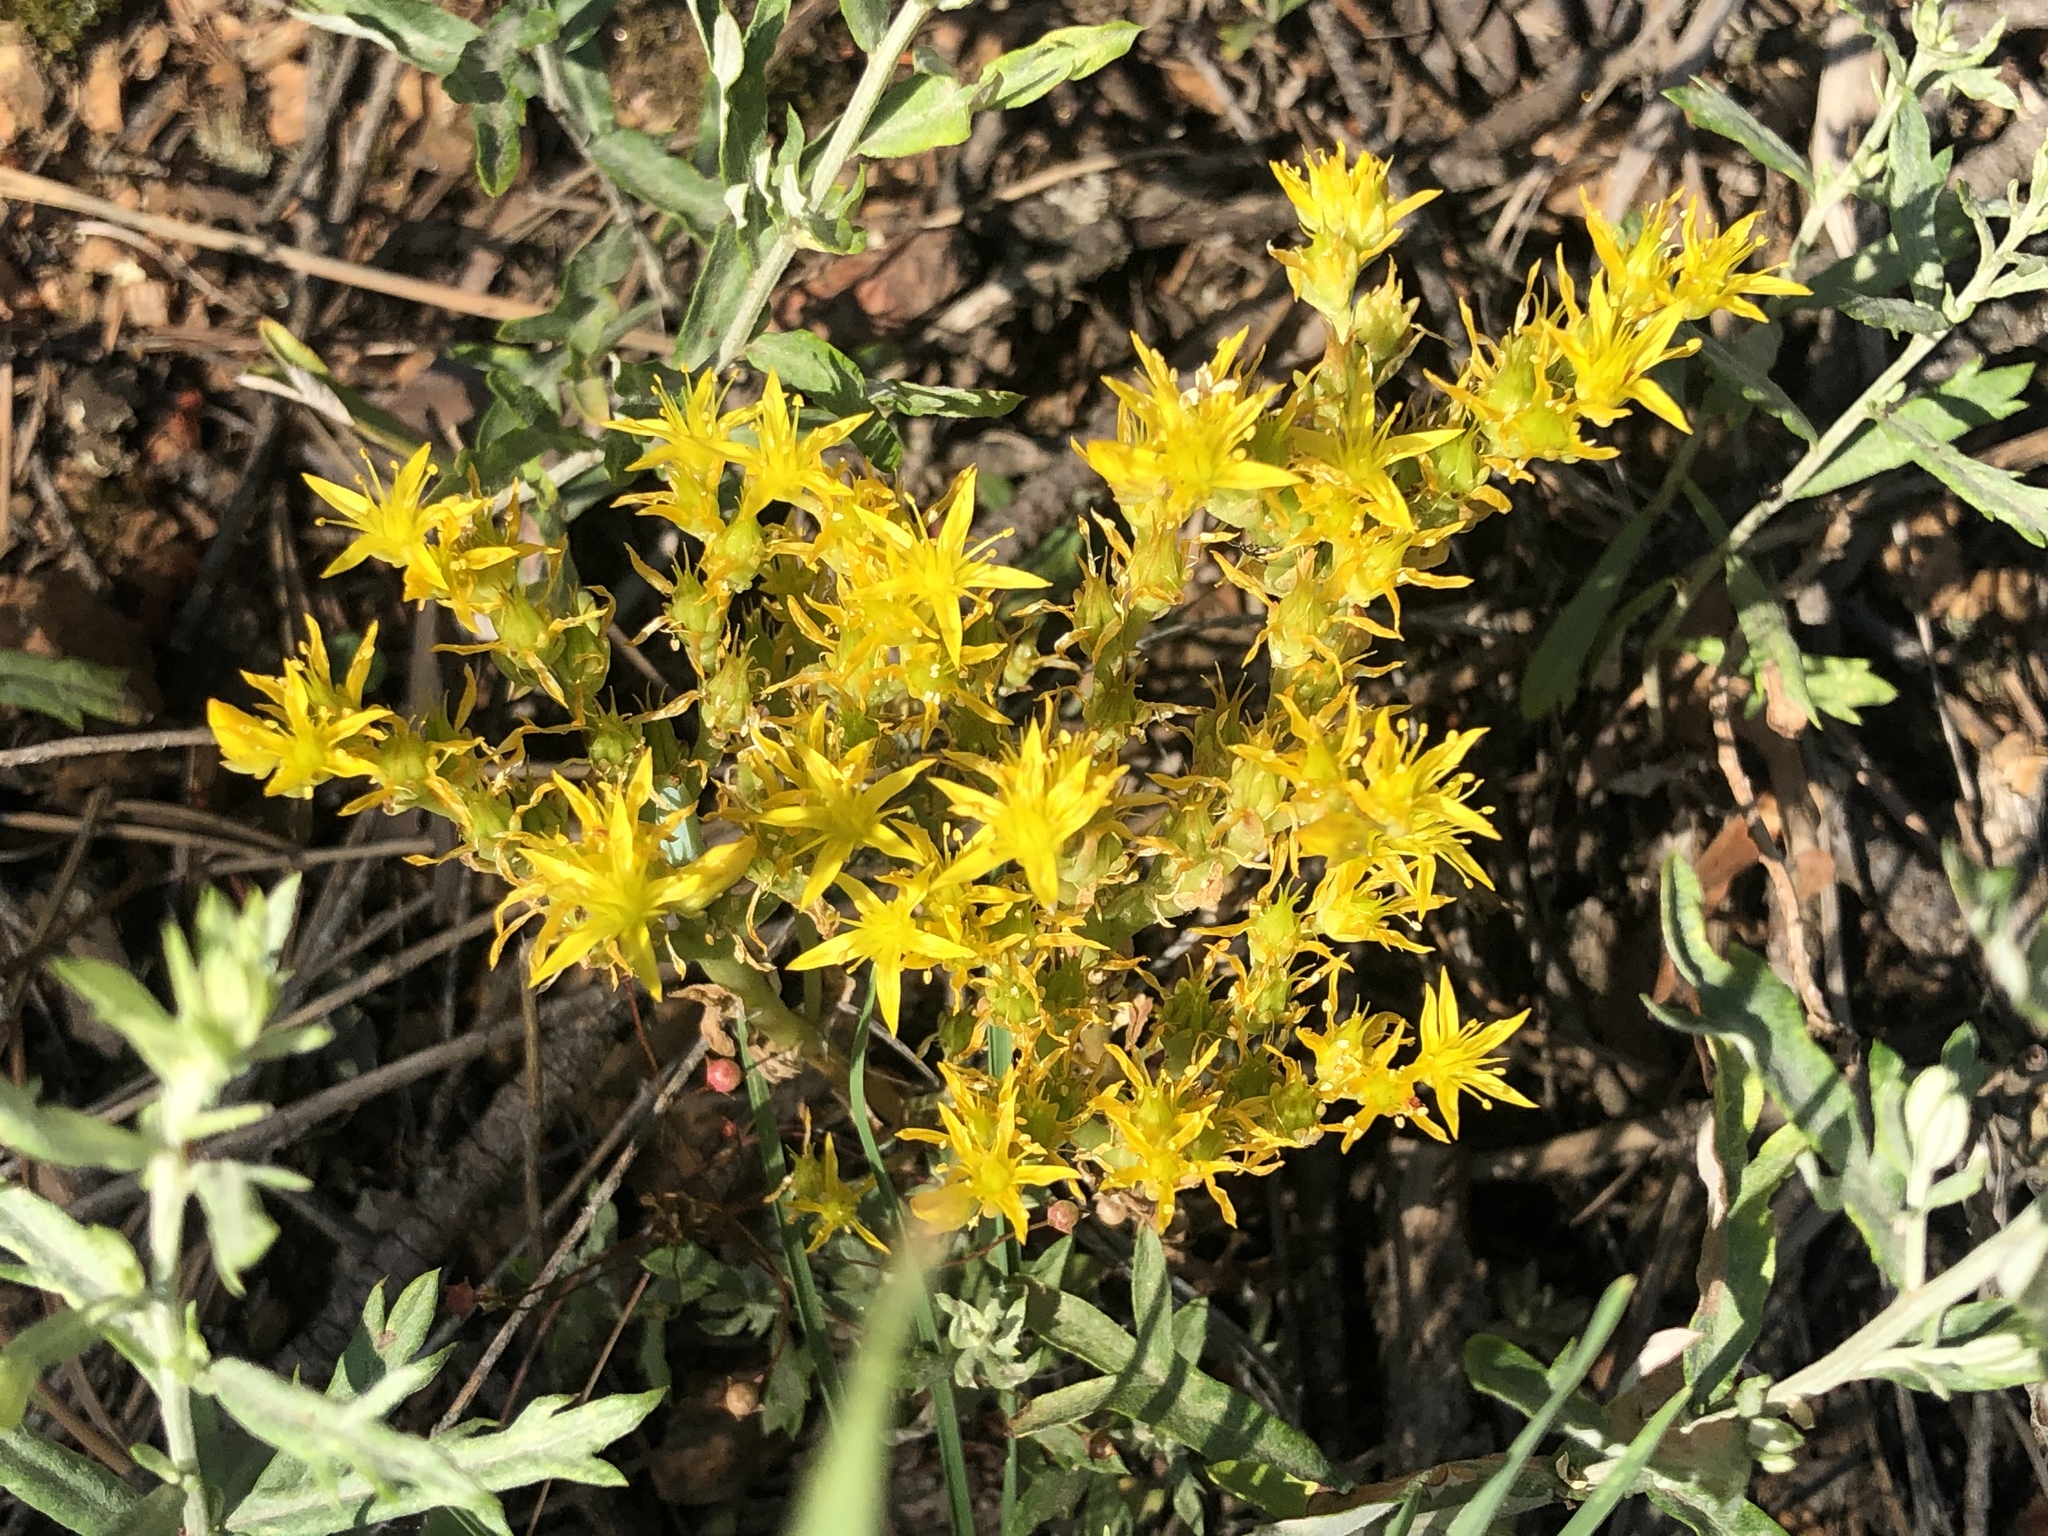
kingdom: Plantae
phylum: Tracheophyta
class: Magnoliopsida
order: Saxifragales
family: Crassulaceae
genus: Sedum
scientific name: Sedum lanceolatum
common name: Common stonecrop
